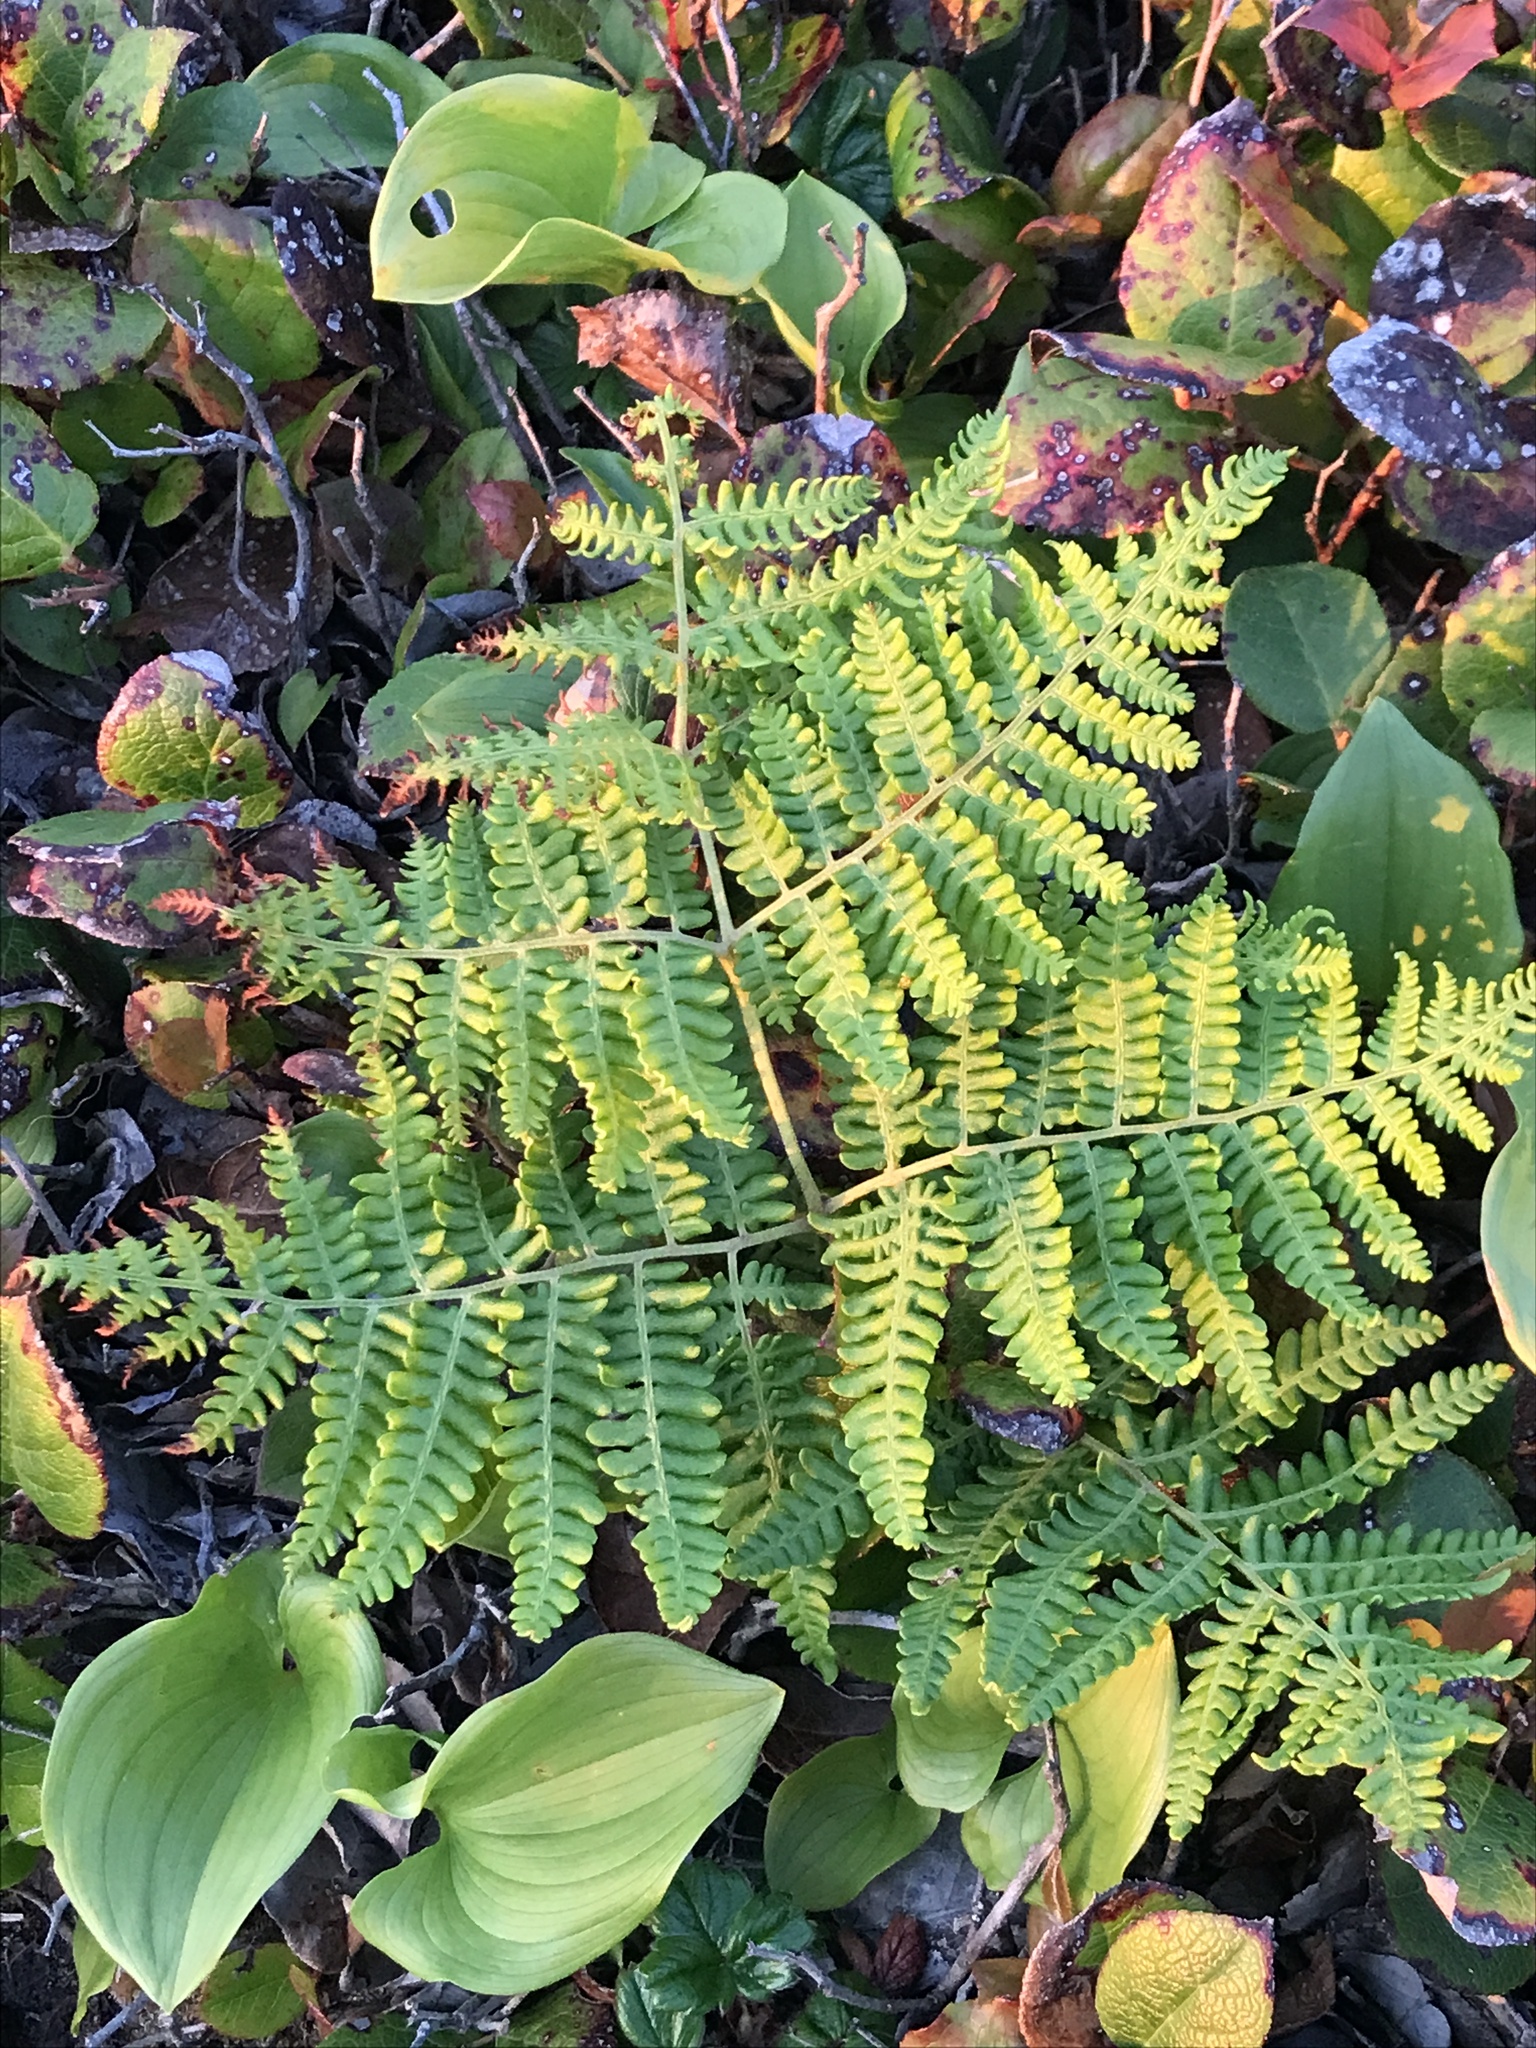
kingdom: Plantae
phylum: Tracheophyta
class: Polypodiopsida
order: Polypodiales
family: Dennstaedtiaceae
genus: Pteridium
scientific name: Pteridium aquilinum
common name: Bracken
